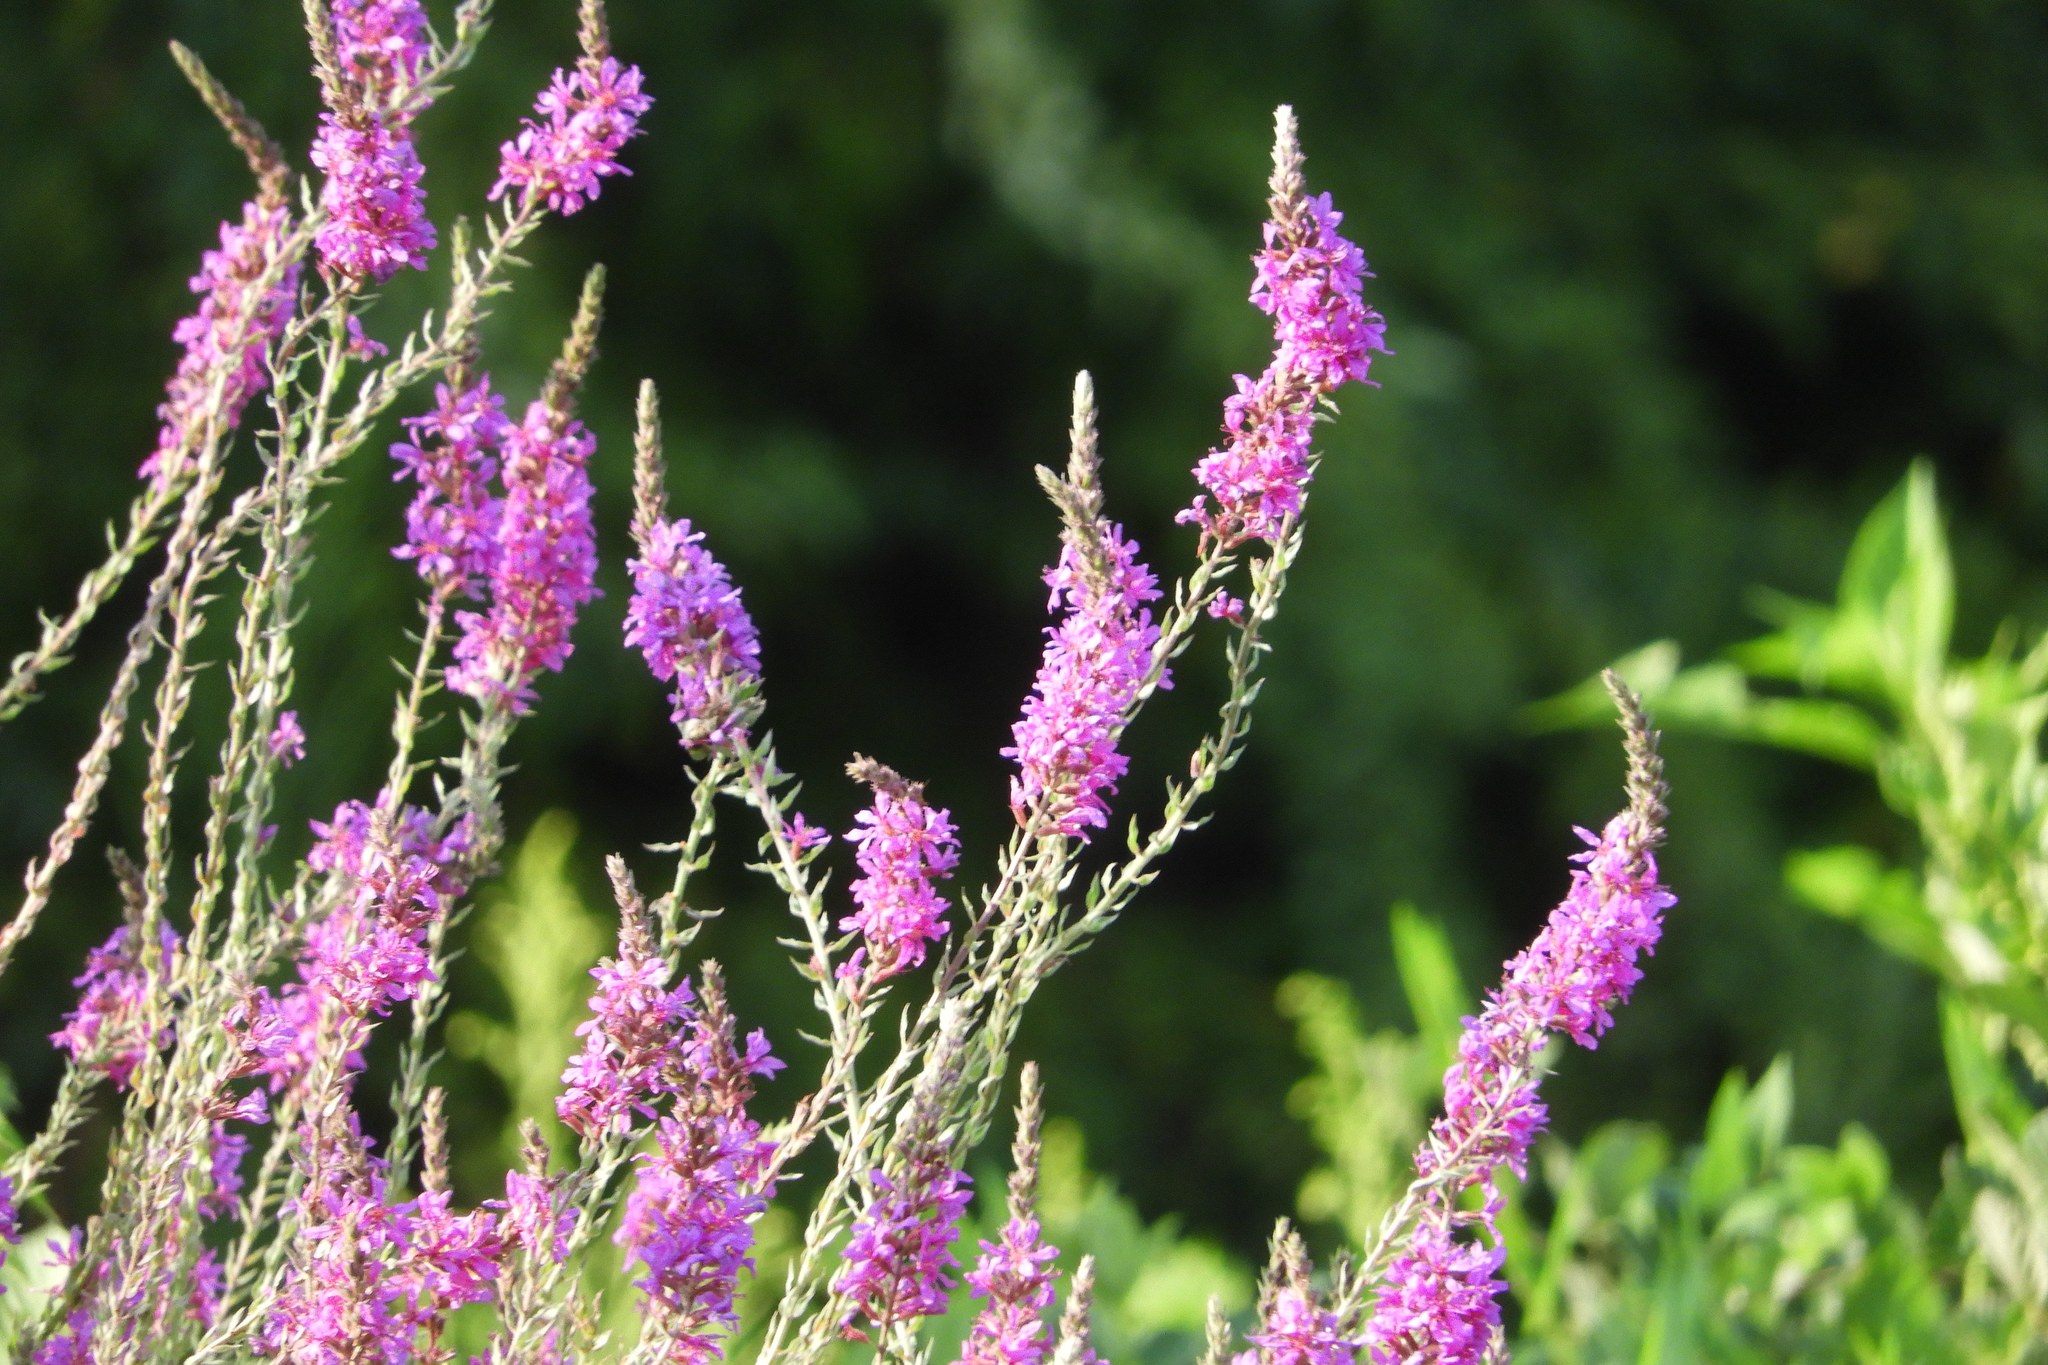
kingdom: Plantae
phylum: Tracheophyta
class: Magnoliopsida
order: Myrtales
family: Lythraceae
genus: Lythrum
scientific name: Lythrum salicaria
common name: Purple loosestrife
